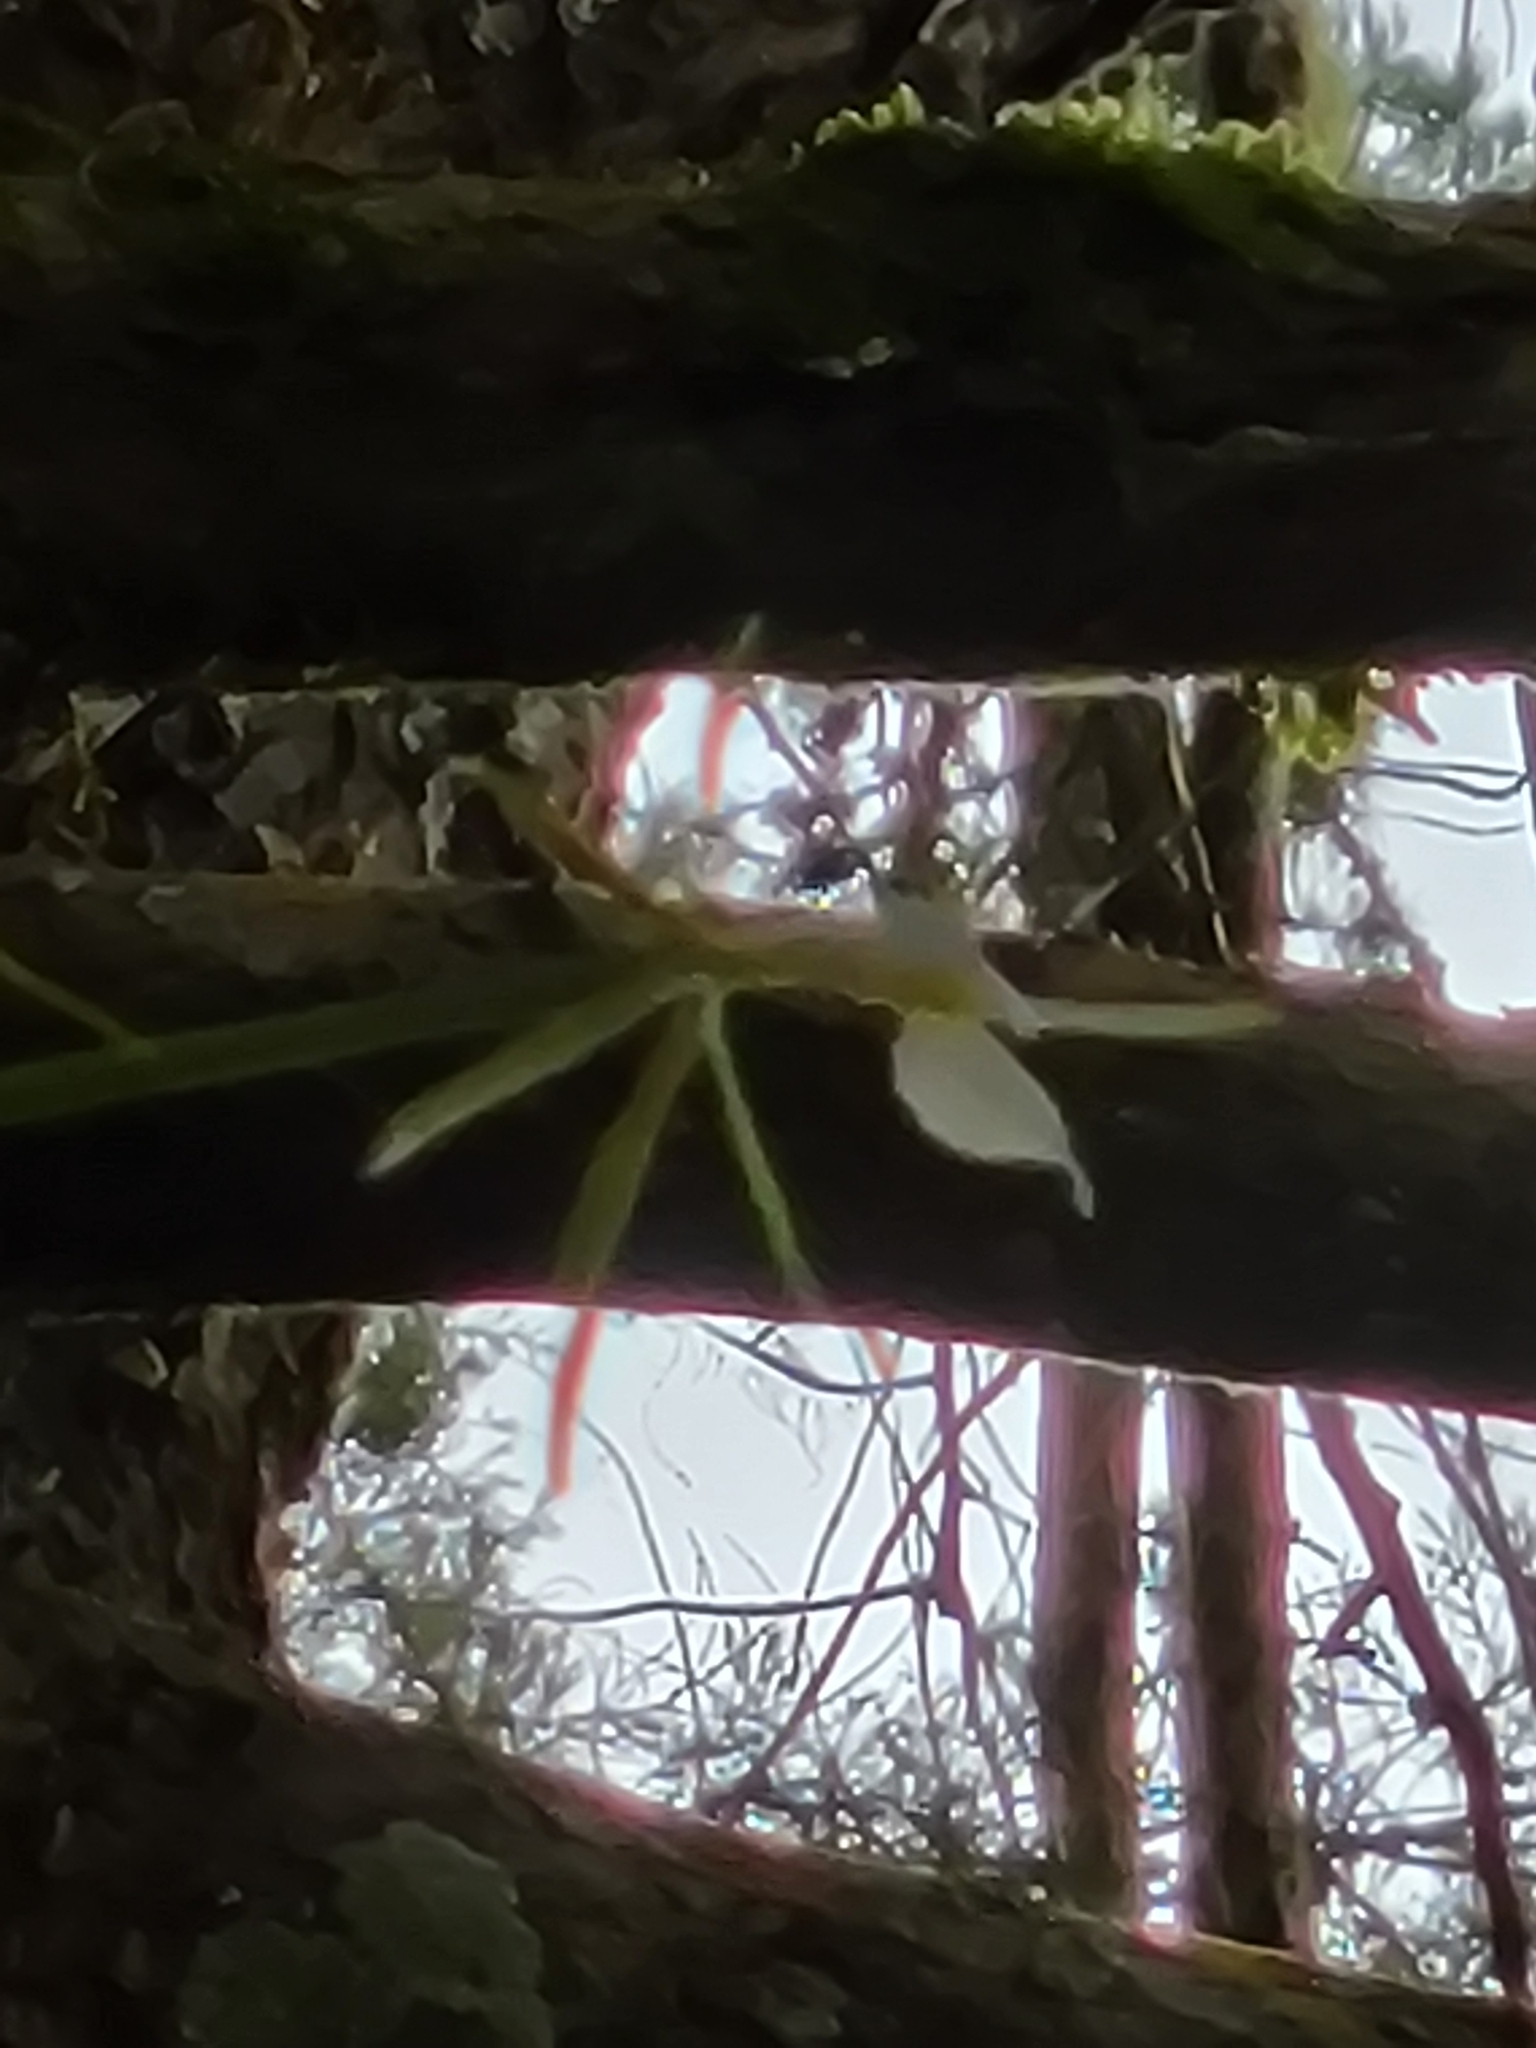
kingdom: Plantae
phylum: Tracheophyta
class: Liliopsida
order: Asparagales
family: Orchidaceae
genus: Epidendrum
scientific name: Epidendrum parkinsonianum
